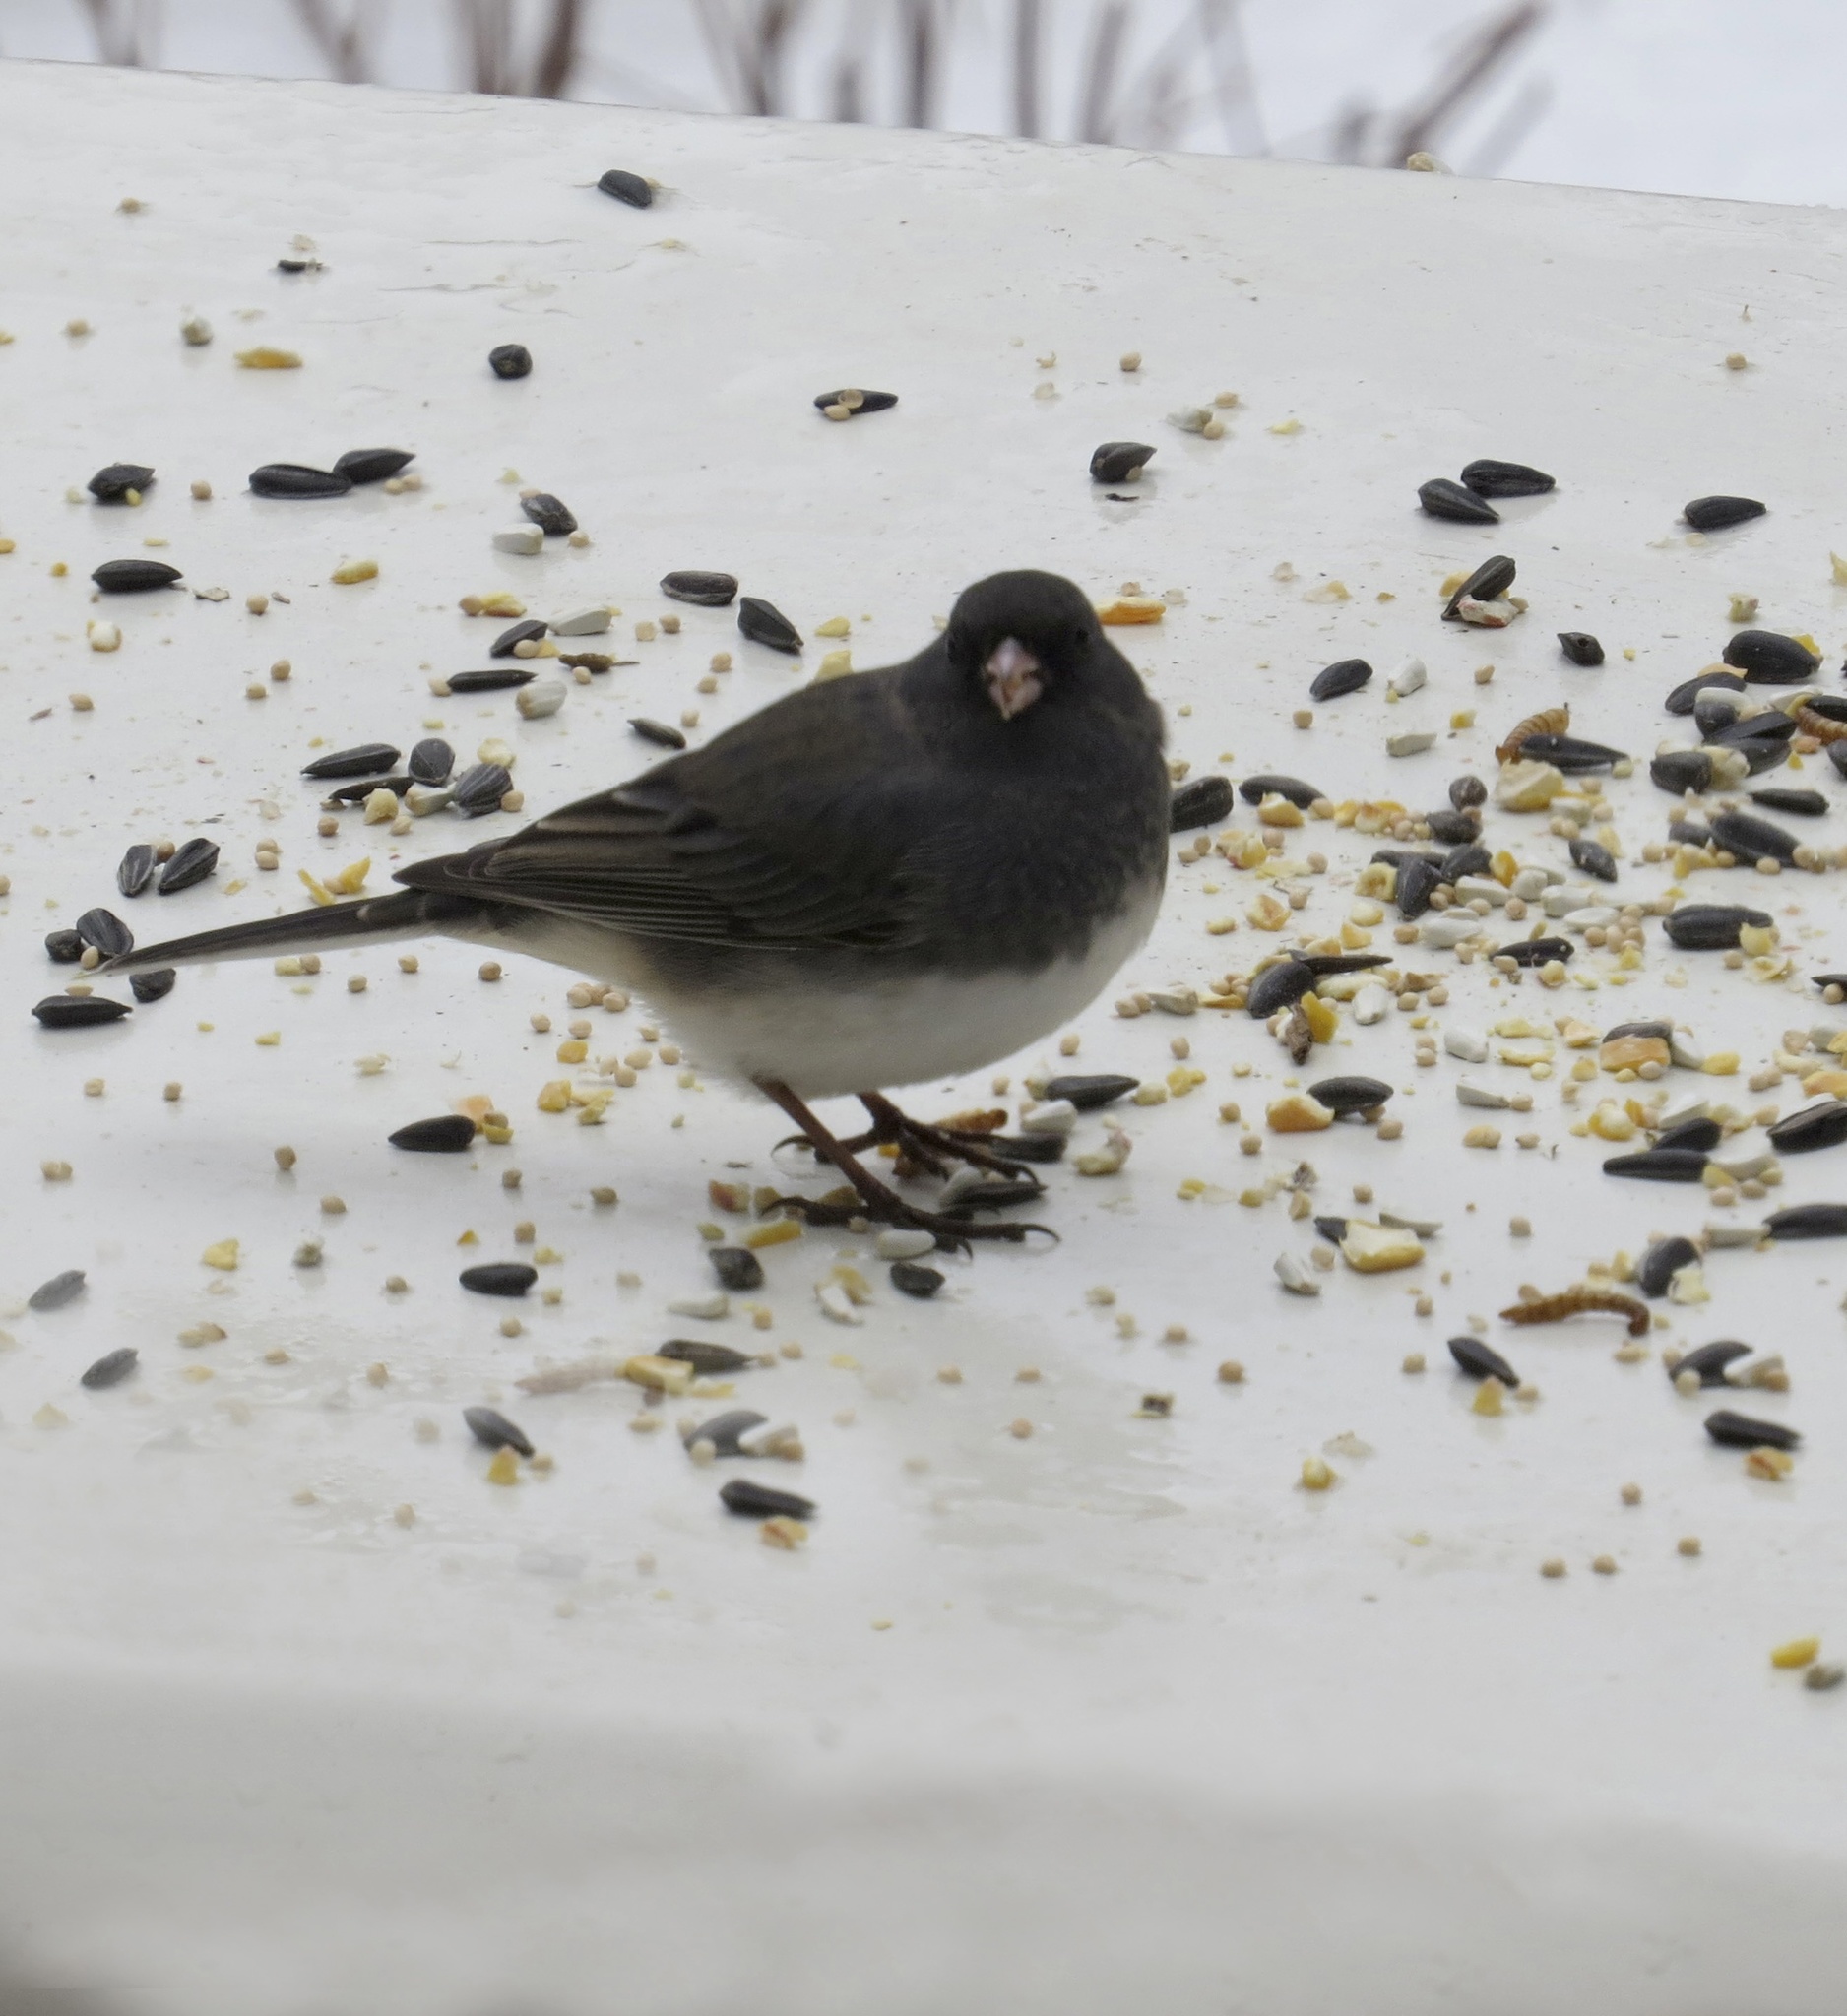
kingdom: Animalia
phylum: Chordata
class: Aves
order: Passeriformes
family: Passerellidae
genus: Junco
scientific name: Junco hyemalis
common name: Dark-eyed junco
